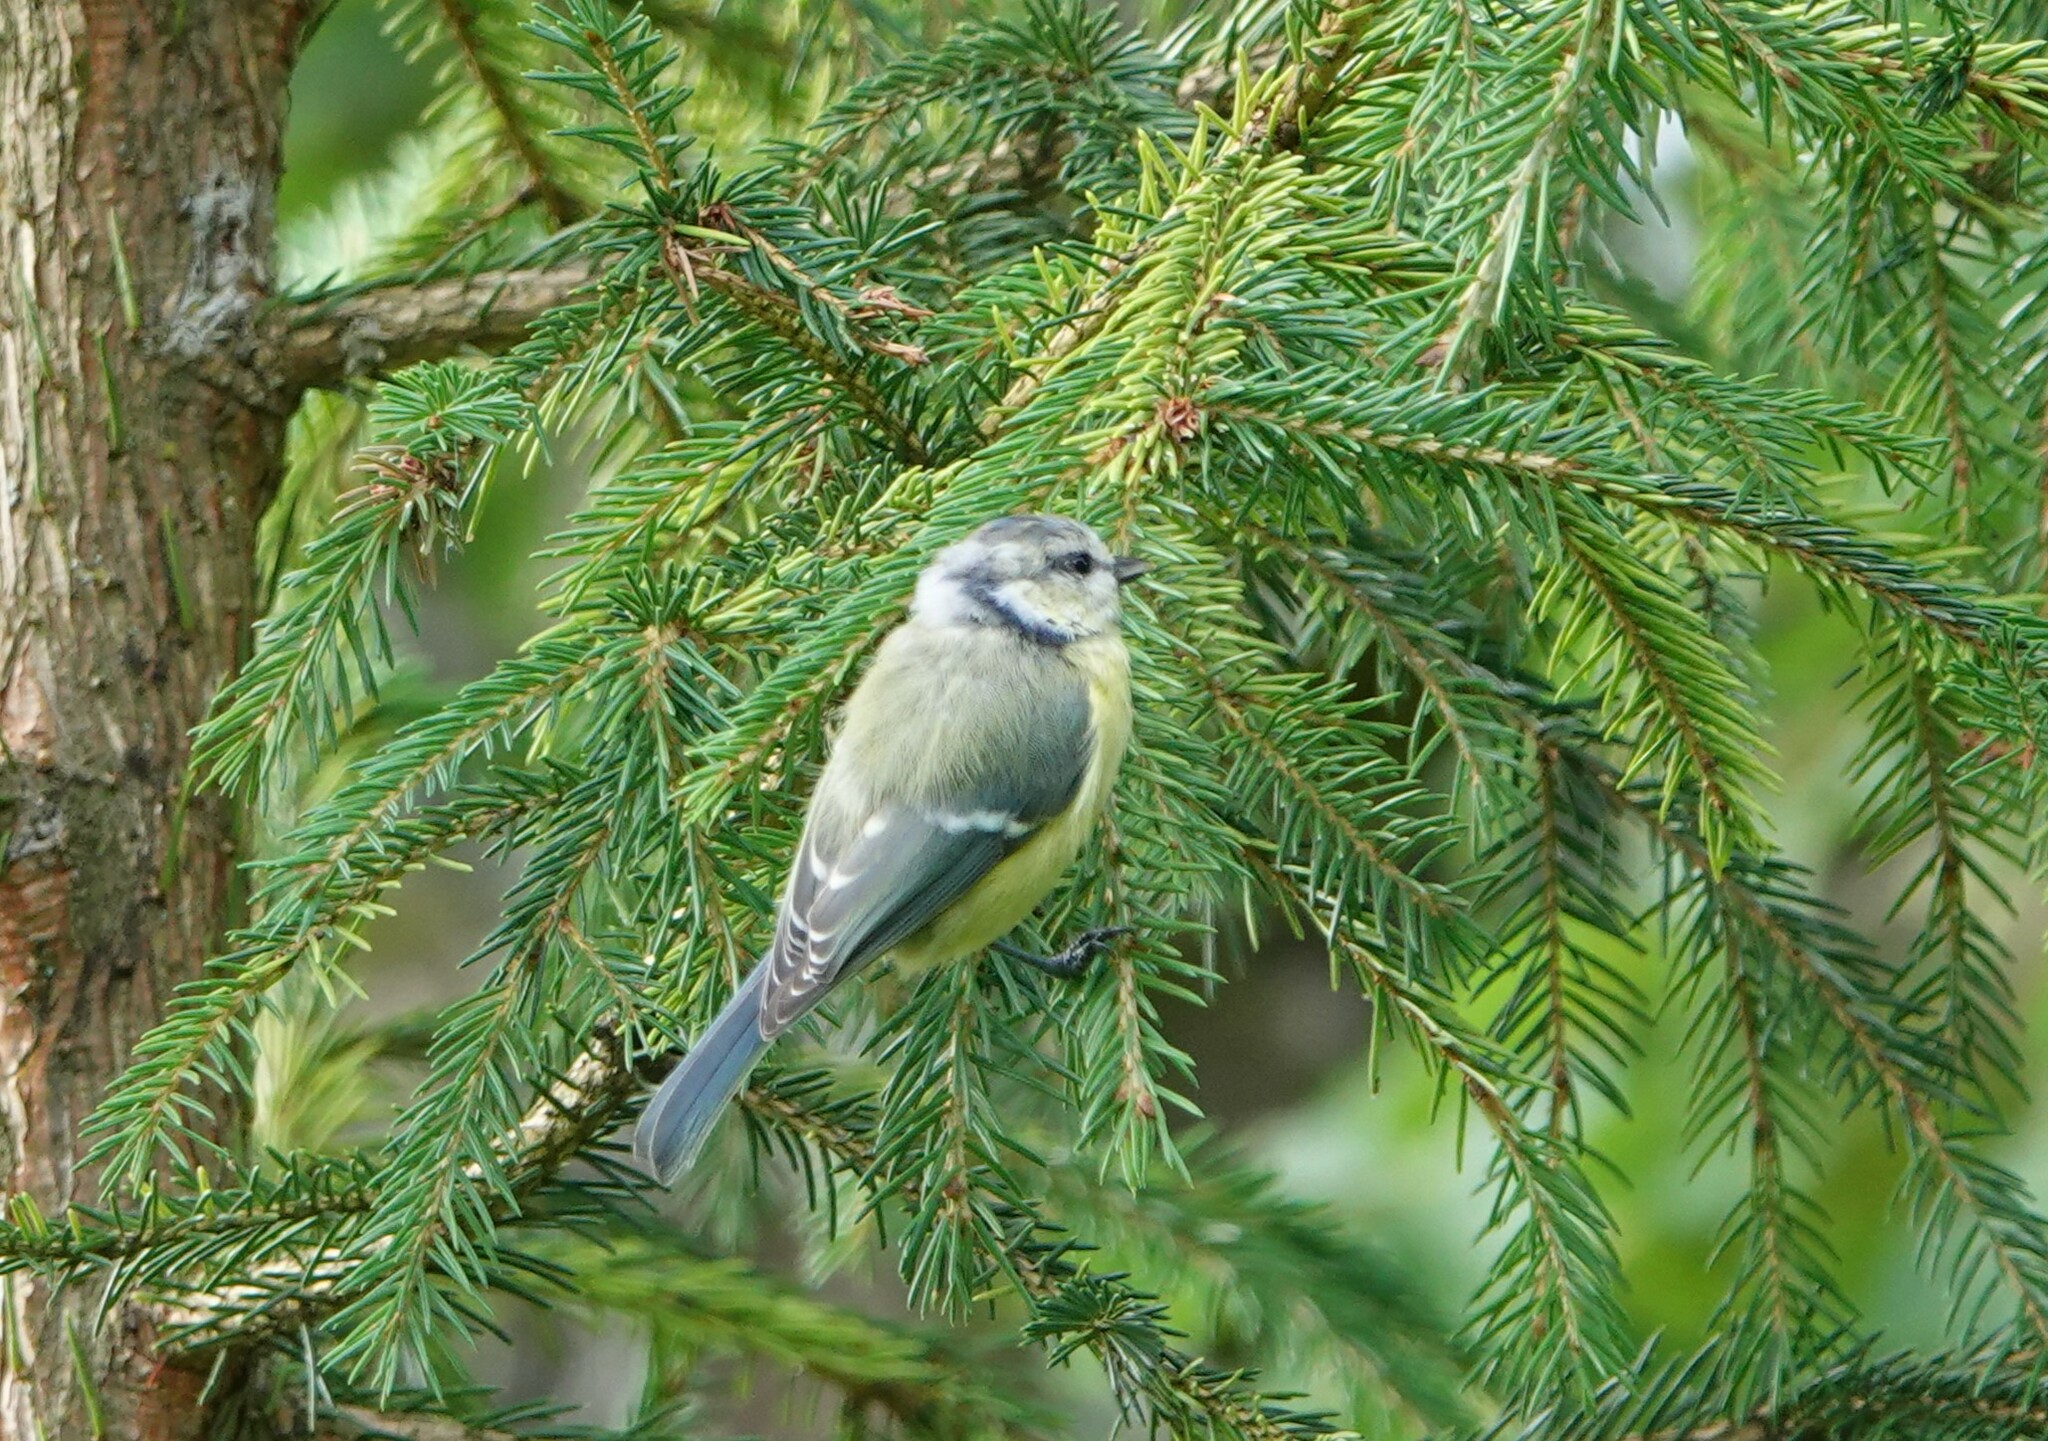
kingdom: Animalia
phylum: Chordata
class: Aves
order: Passeriformes
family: Paridae
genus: Cyanistes
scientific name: Cyanistes caeruleus
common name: Eurasian blue tit
